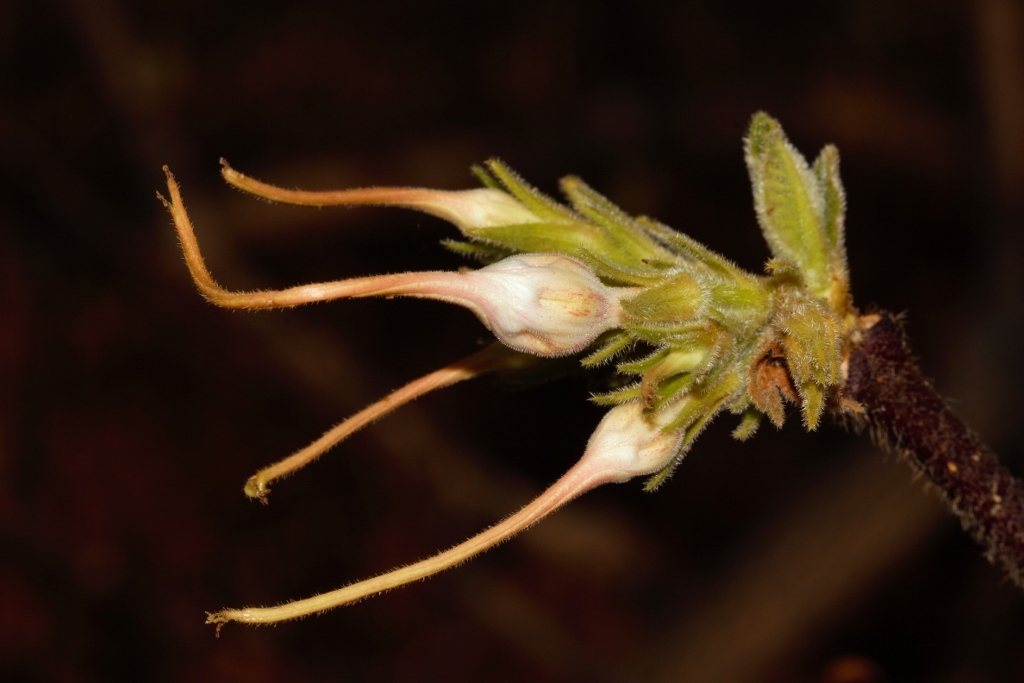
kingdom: Plantae
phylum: Tracheophyta
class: Magnoliopsida
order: Gentianales
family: Apocynaceae
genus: Strophanthus
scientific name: Strophanthus kombe
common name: Kombe
